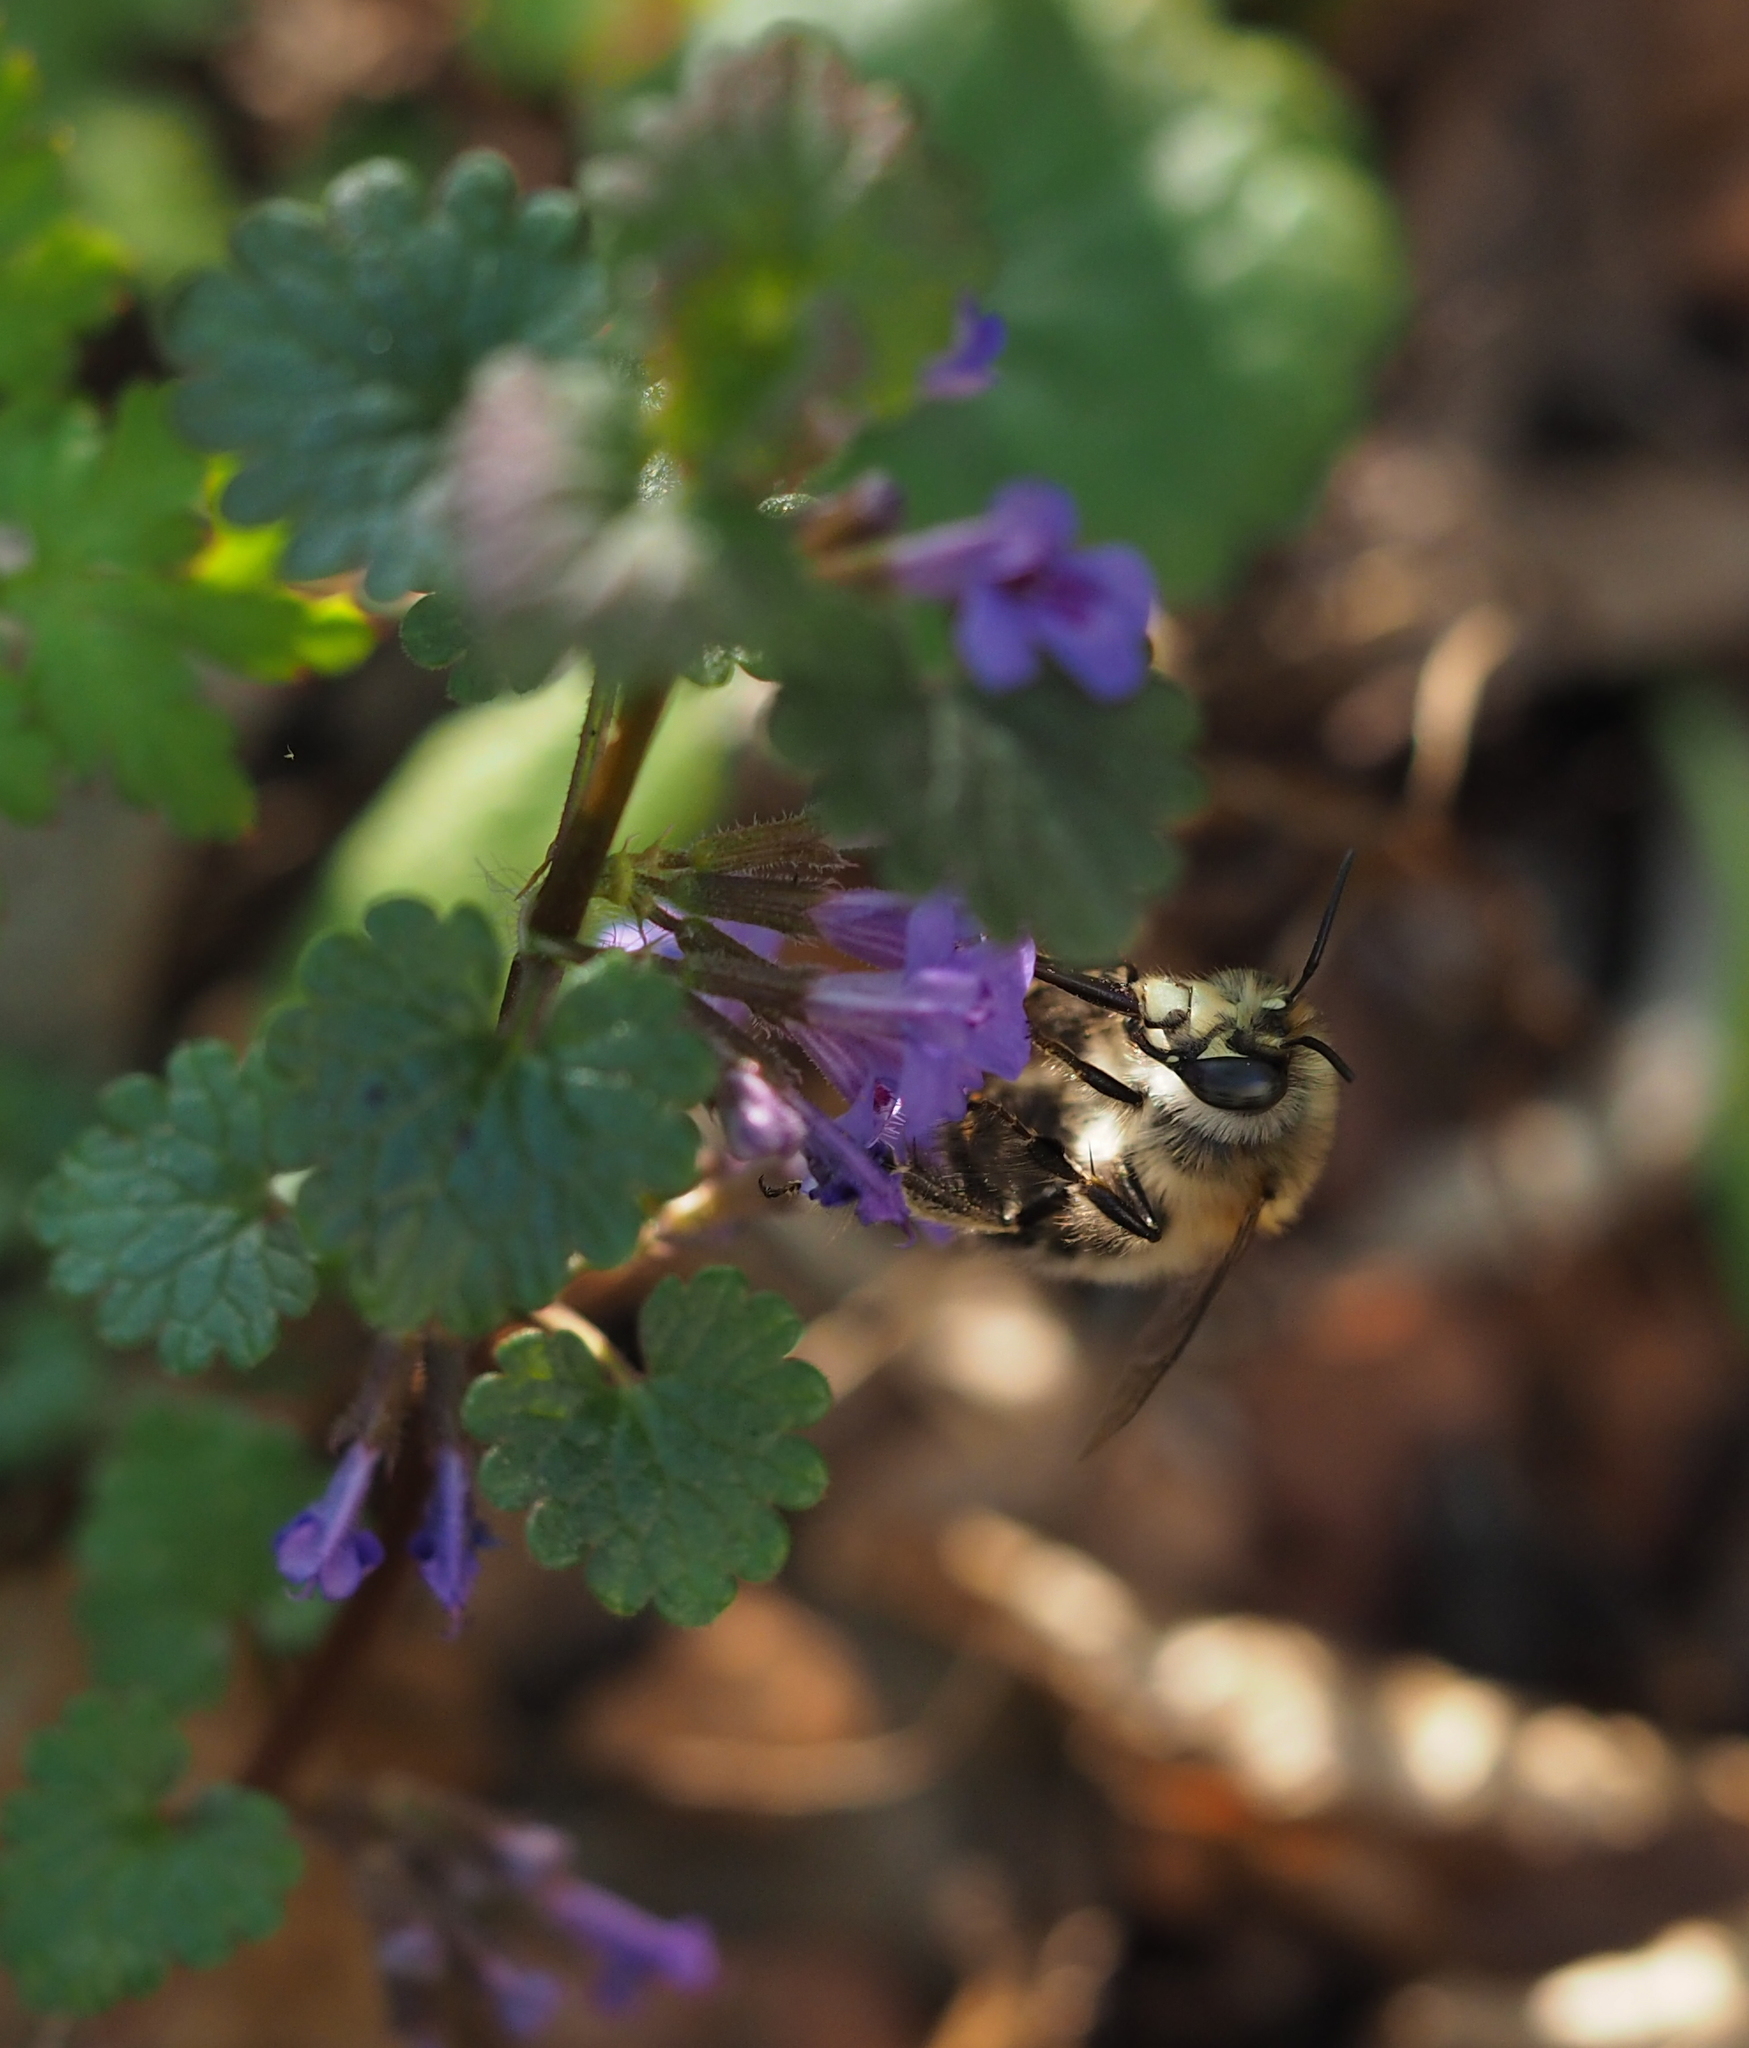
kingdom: Animalia
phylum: Arthropoda
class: Insecta
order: Hymenoptera
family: Apidae
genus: Anthophora
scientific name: Anthophora plumipes
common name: Hairy-footed flower bee
